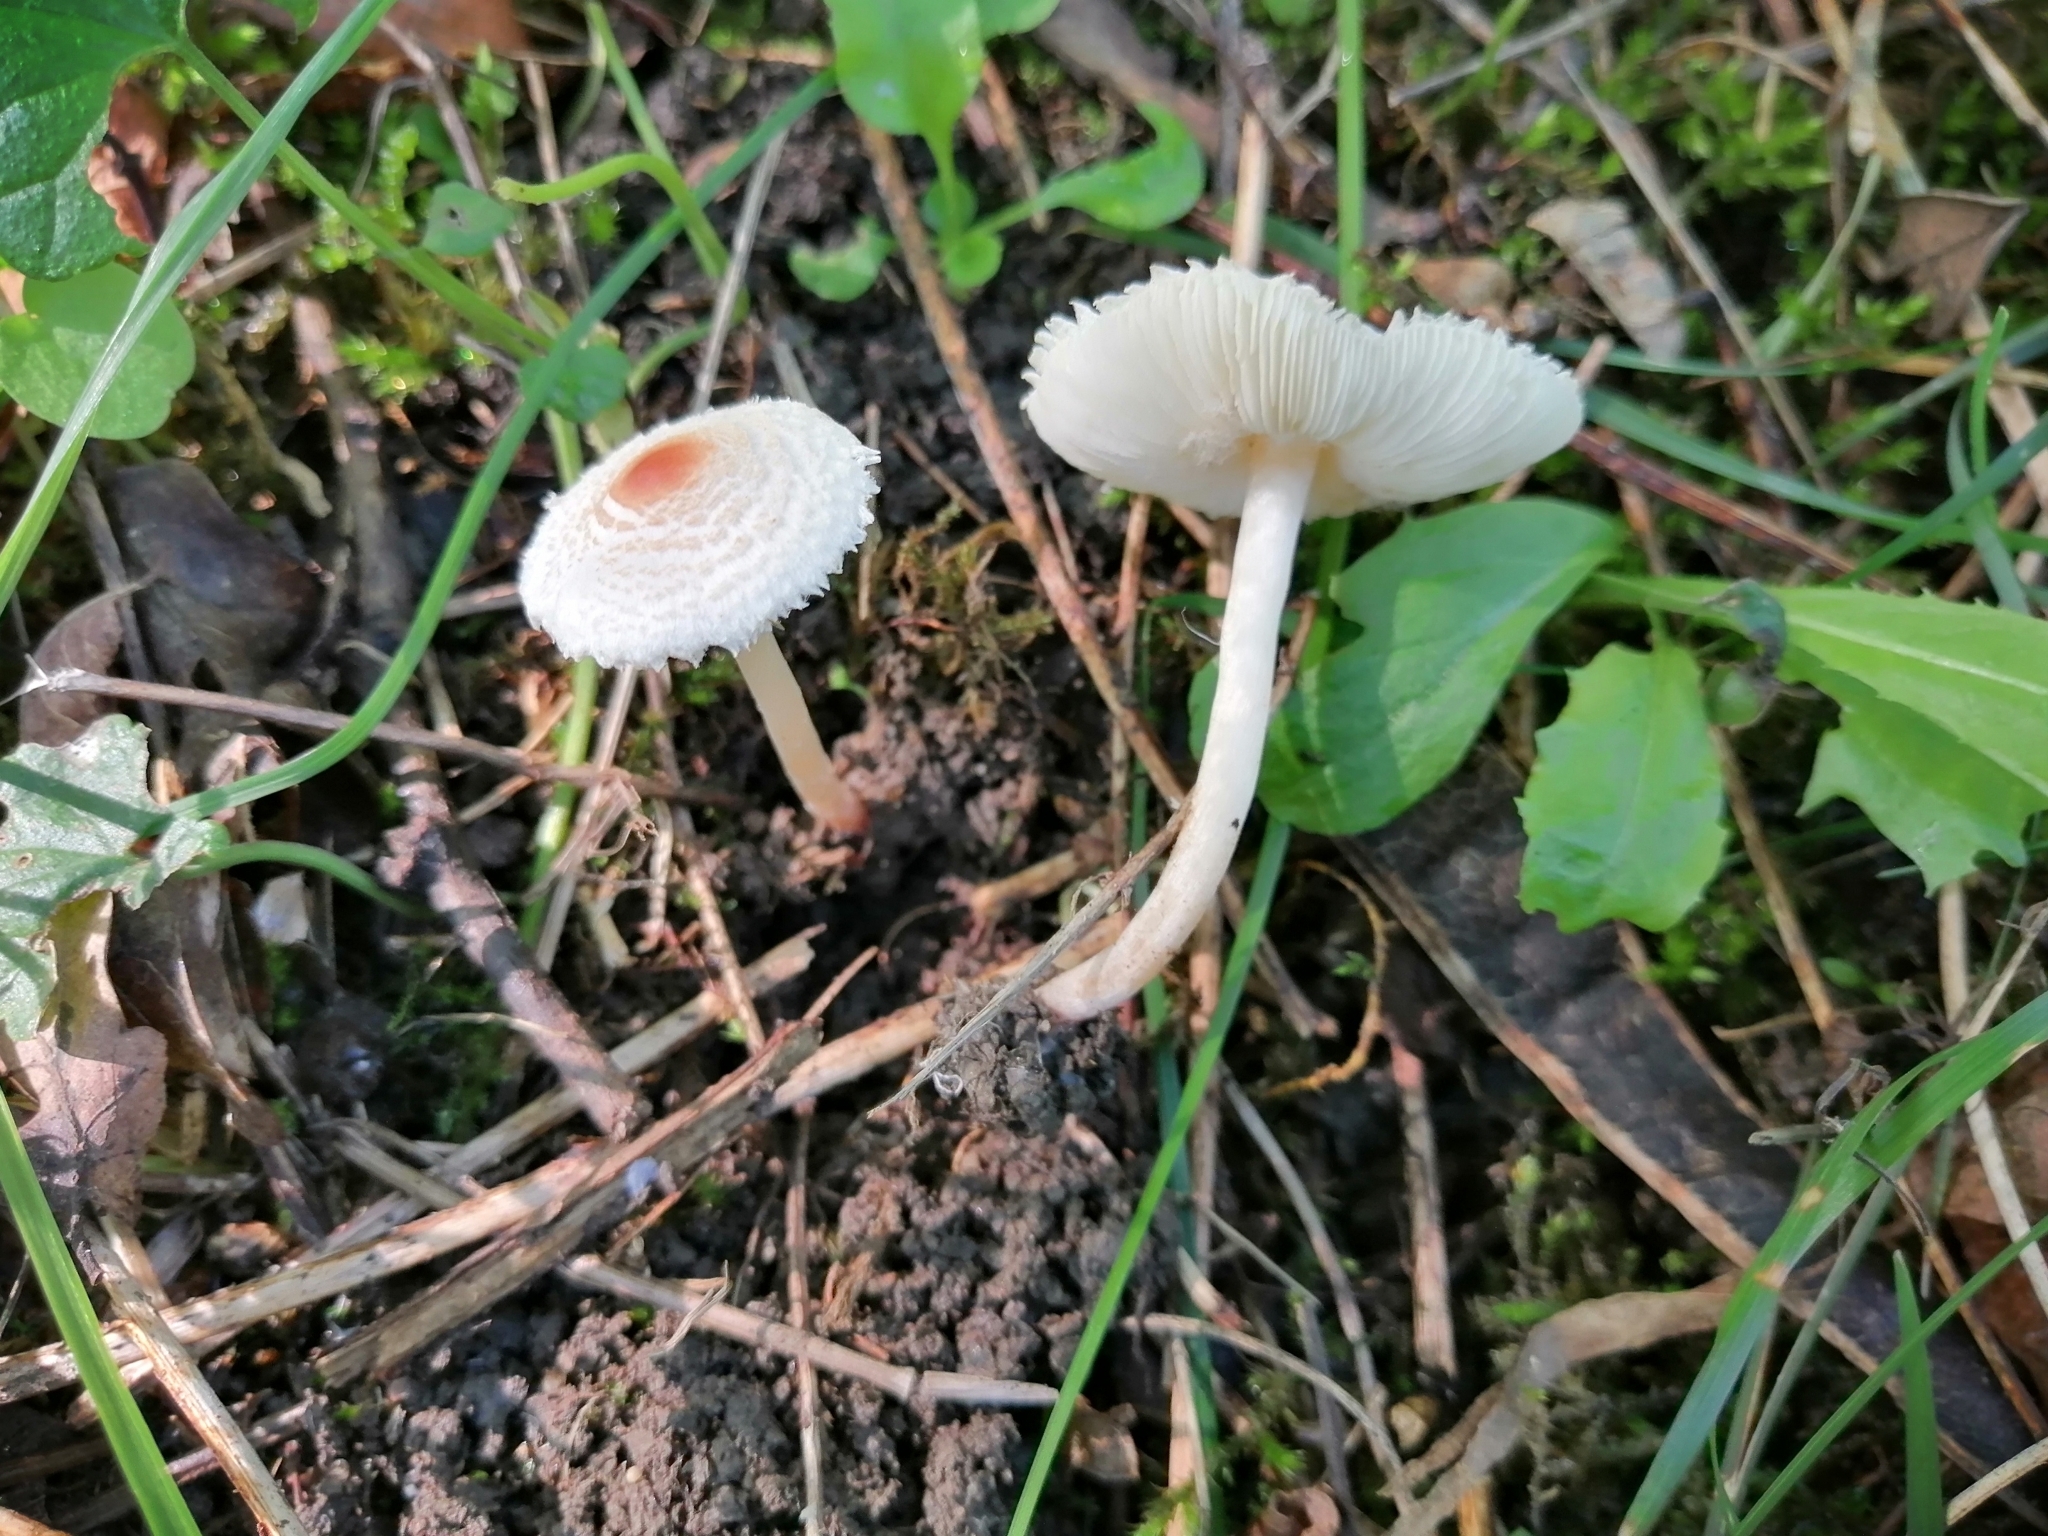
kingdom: Fungi
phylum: Basidiomycota
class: Agaricomycetes
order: Agaricales
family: Agaricaceae
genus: Lepiota
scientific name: Lepiota cristata
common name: Stinking dapperling
